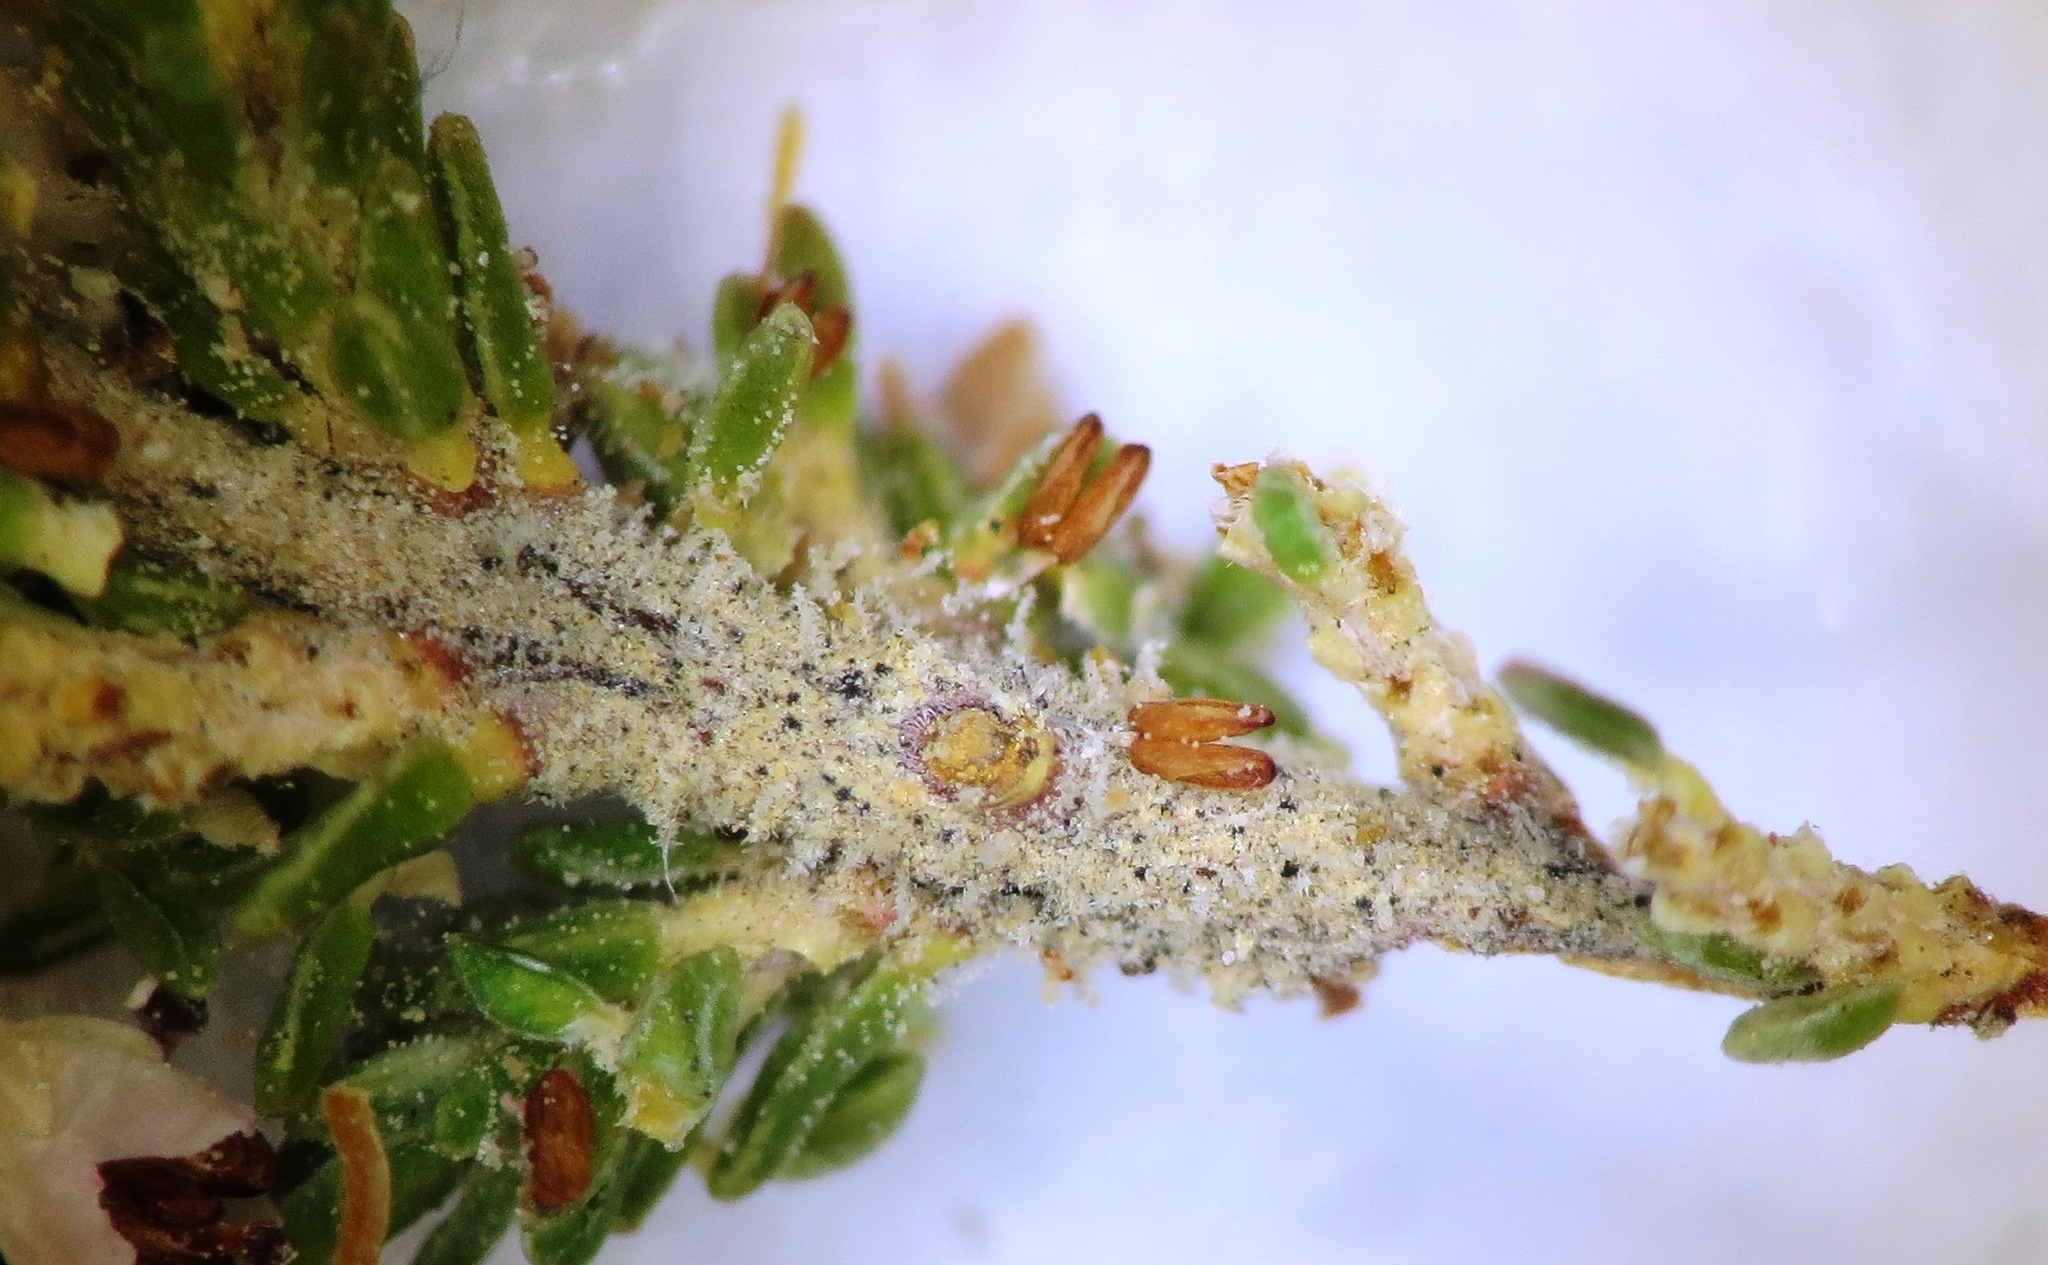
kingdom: Plantae
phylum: Tracheophyta
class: Magnoliopsida
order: Ericales
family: Ericaceae
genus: Erica
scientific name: Erica paniculata
